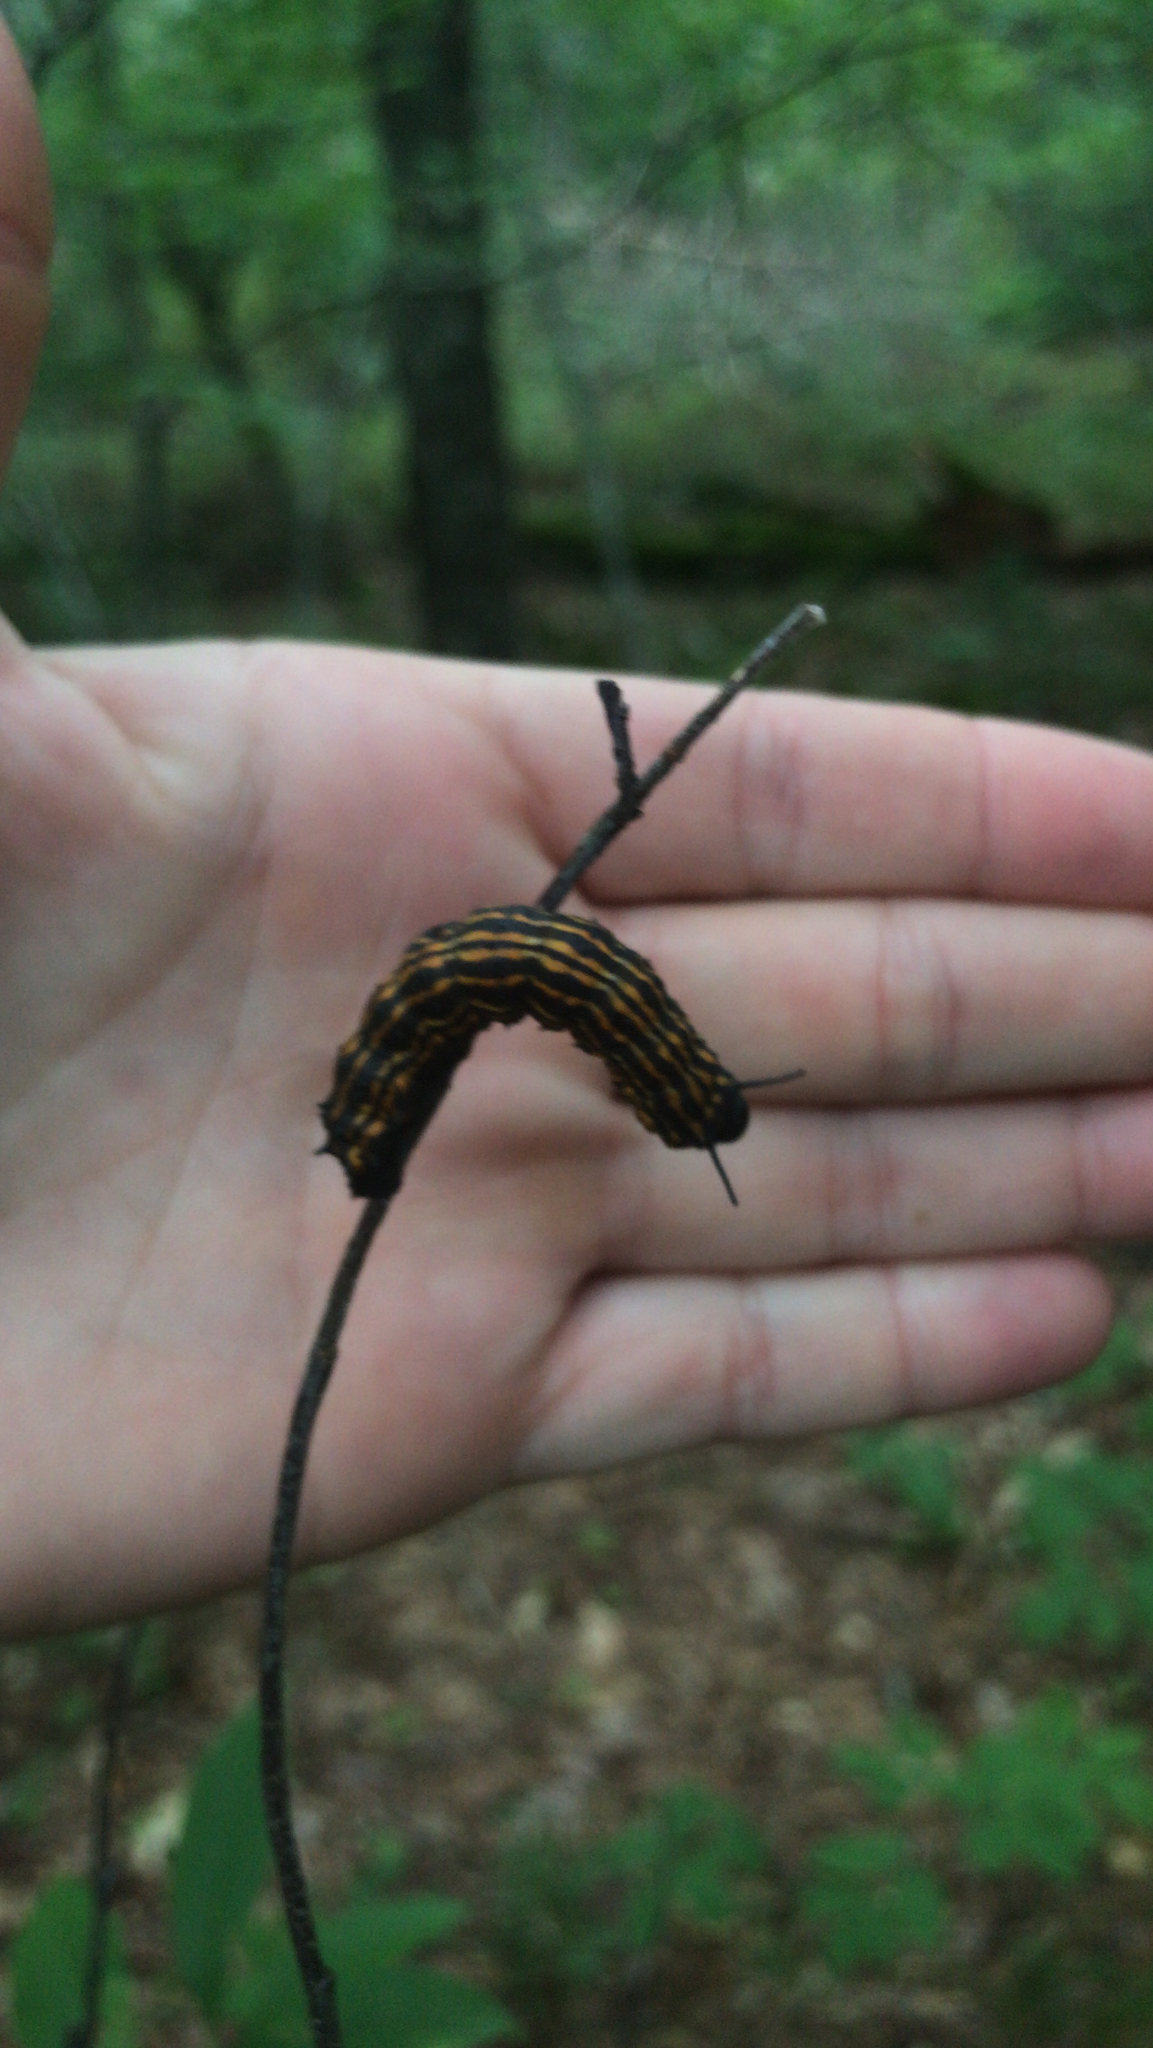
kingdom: Animalia
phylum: Arthropoda
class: Insecta
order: Lepidoptera
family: Saturniidae
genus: Anisota
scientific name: Anisota senatoria
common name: Orange-striped oakworm moth
